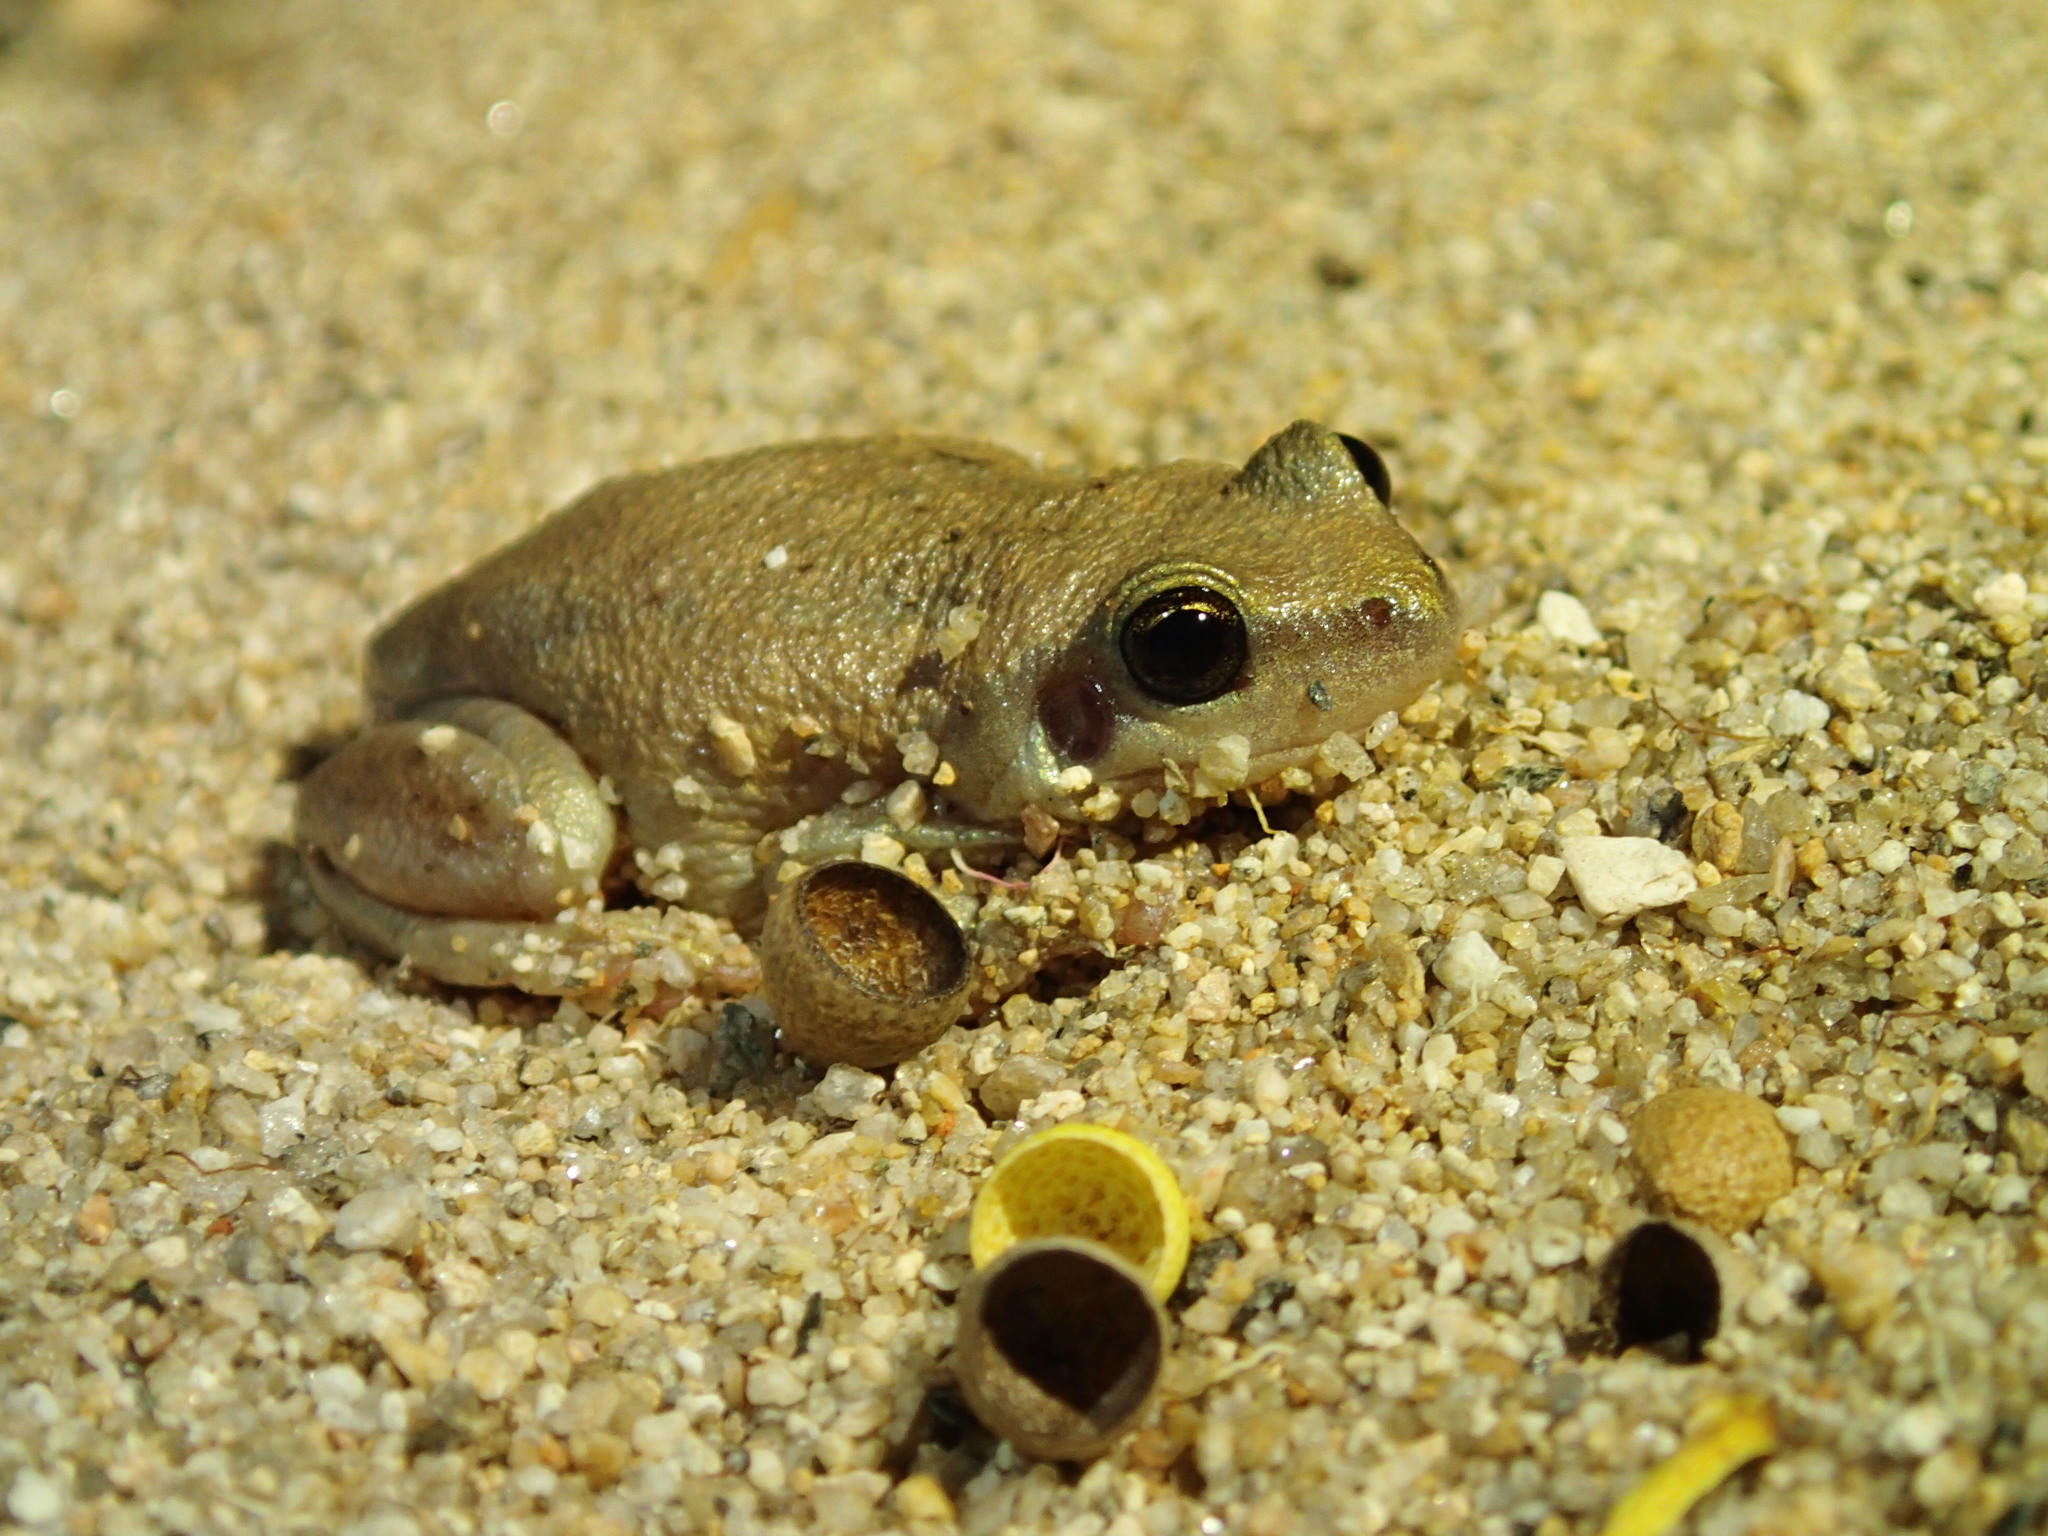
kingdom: Animalia
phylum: Chordata
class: Amphibia
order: Anura
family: Pelodryadidae
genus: Litoria
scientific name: Litoria rubella
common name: Desert tree frog
